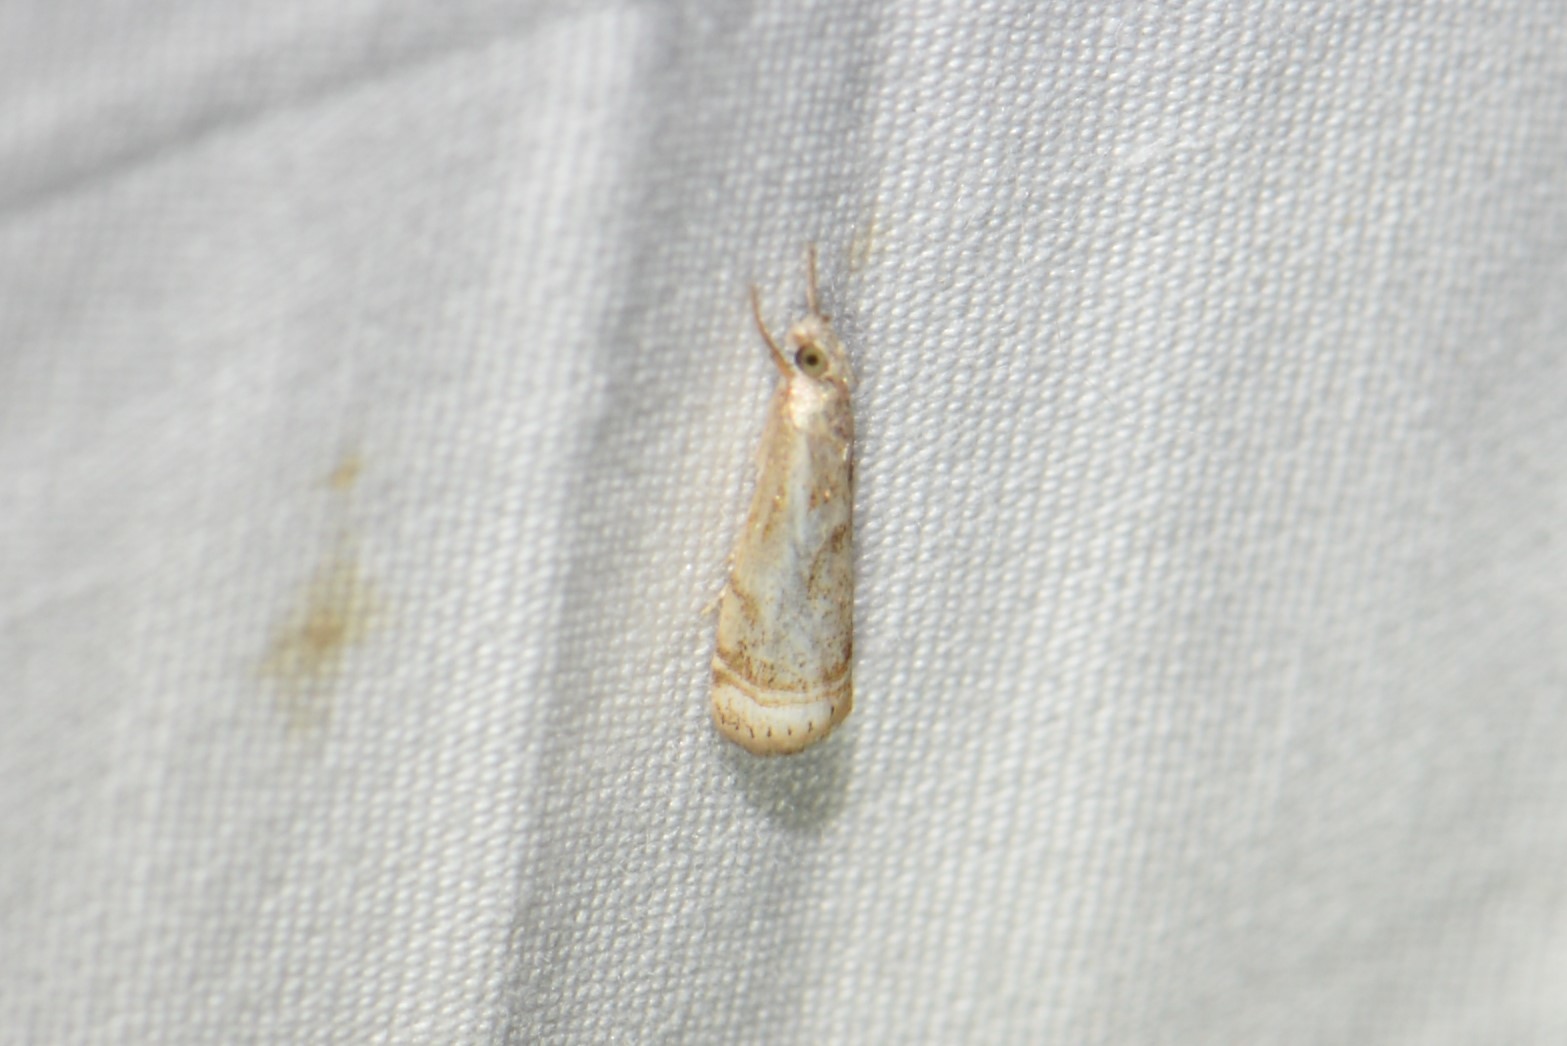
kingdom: Animalia
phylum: Arthropoda
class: Insecta
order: Lepidoptera
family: Crambidae
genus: Microcrambus
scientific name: Microcrambus elegans
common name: Elegant grass-veneer
